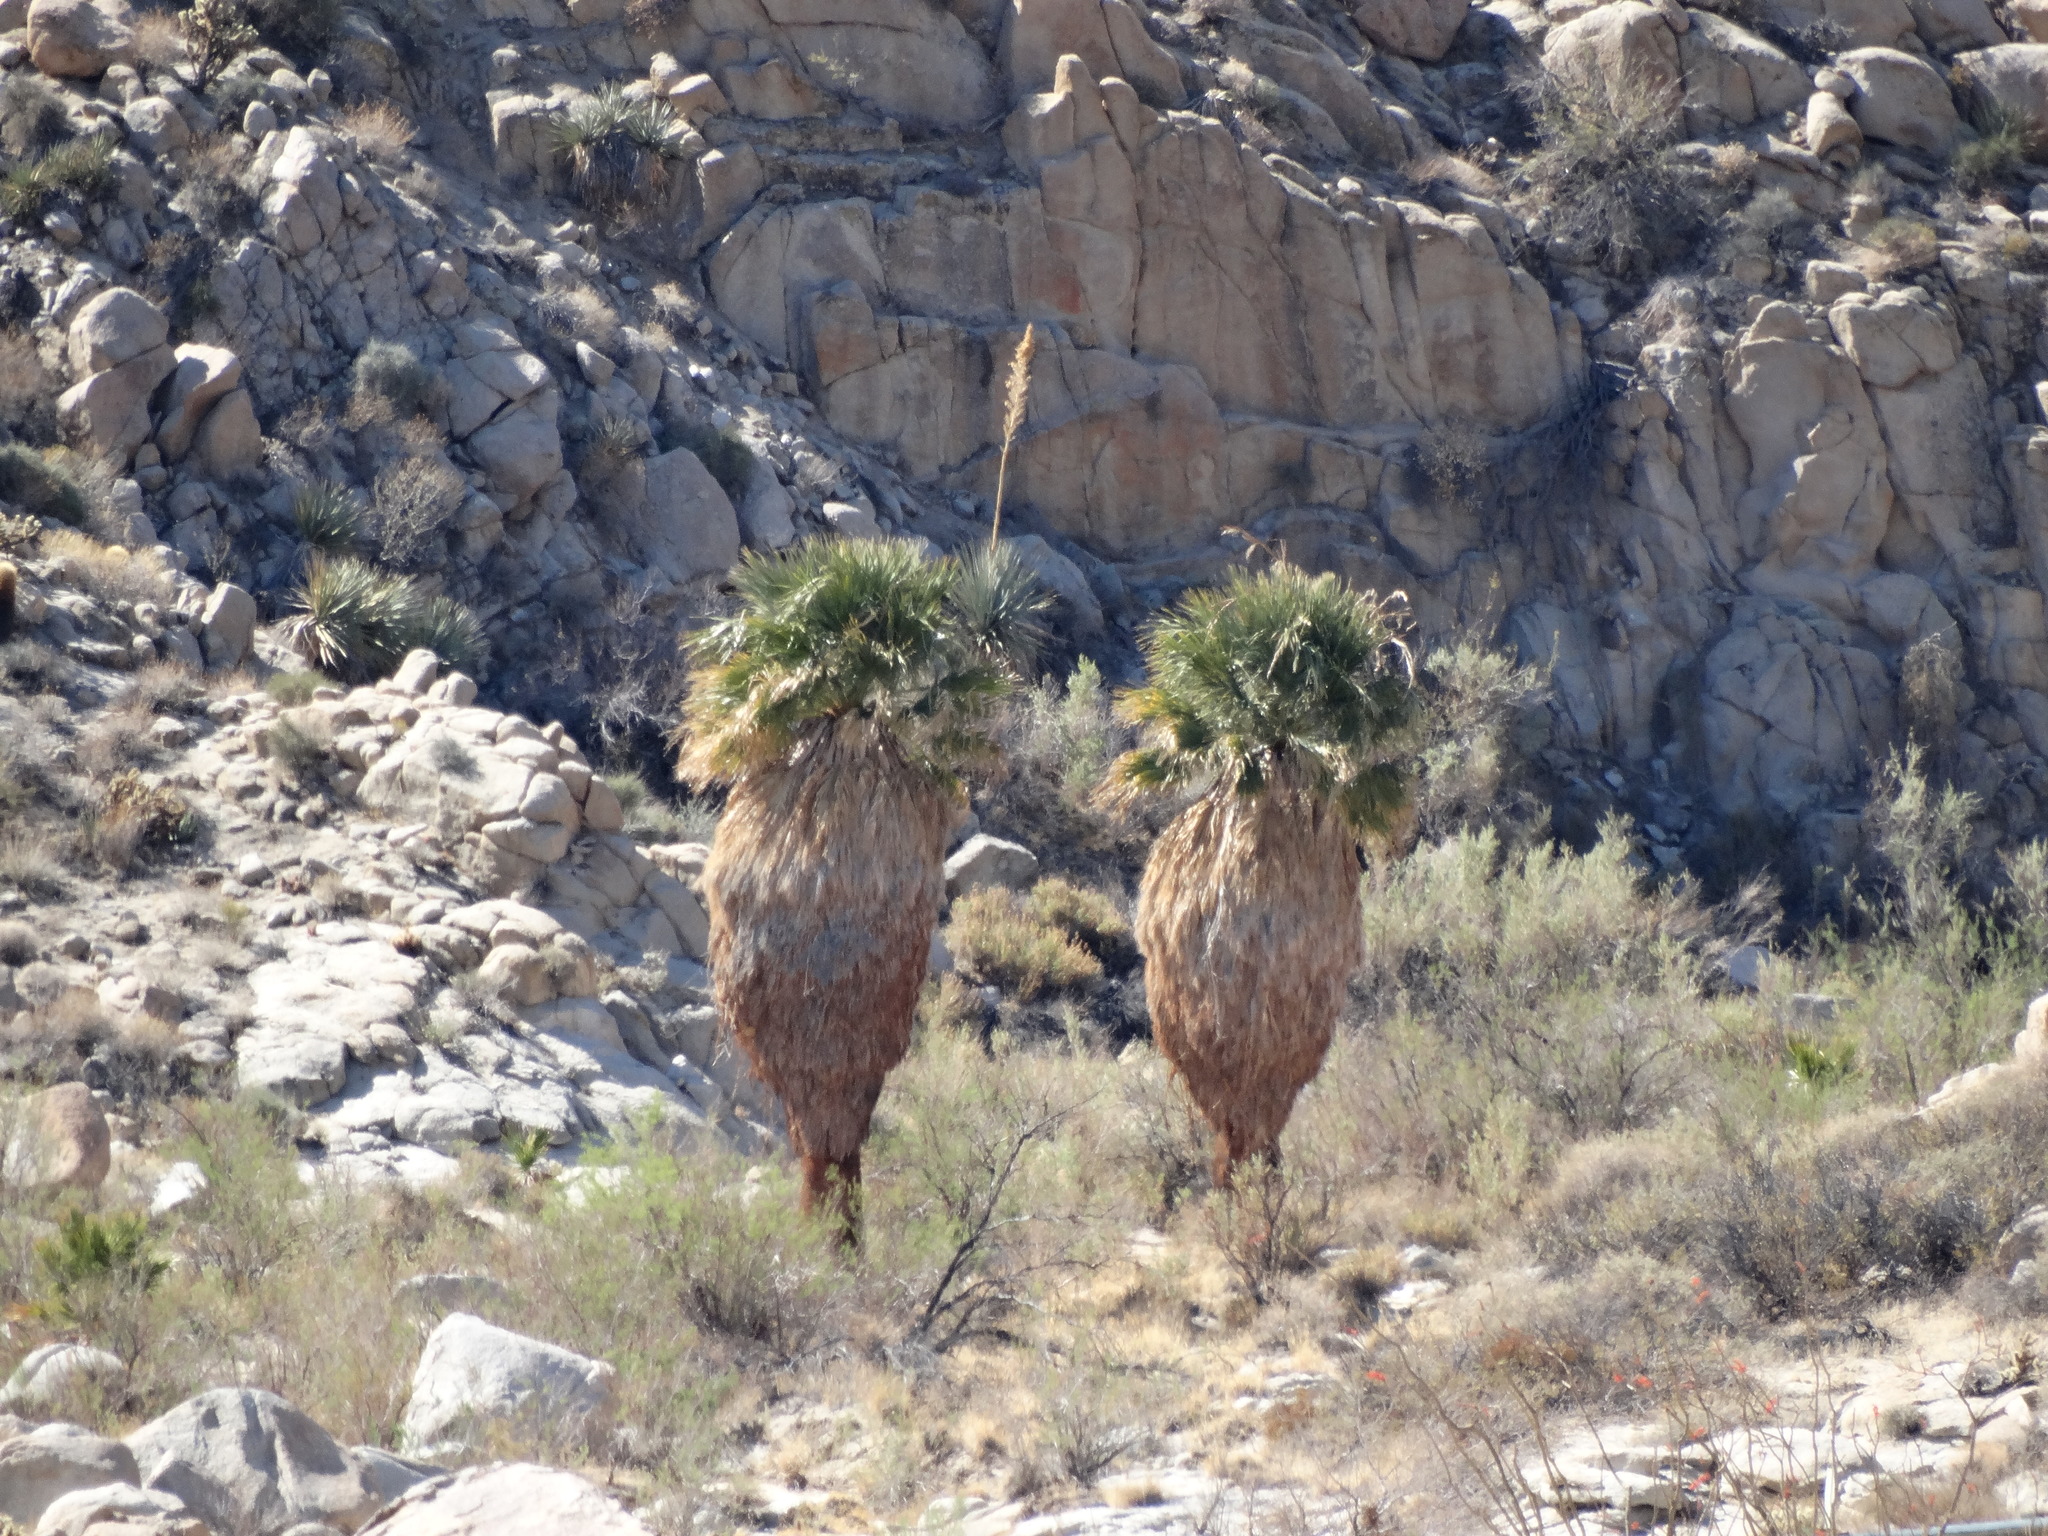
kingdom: Plantae
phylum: Tracheophyta
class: Liliopsida
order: Arecales
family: Arecaceae
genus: Washingtonia
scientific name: Washingtonia filifera
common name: California fan palm
